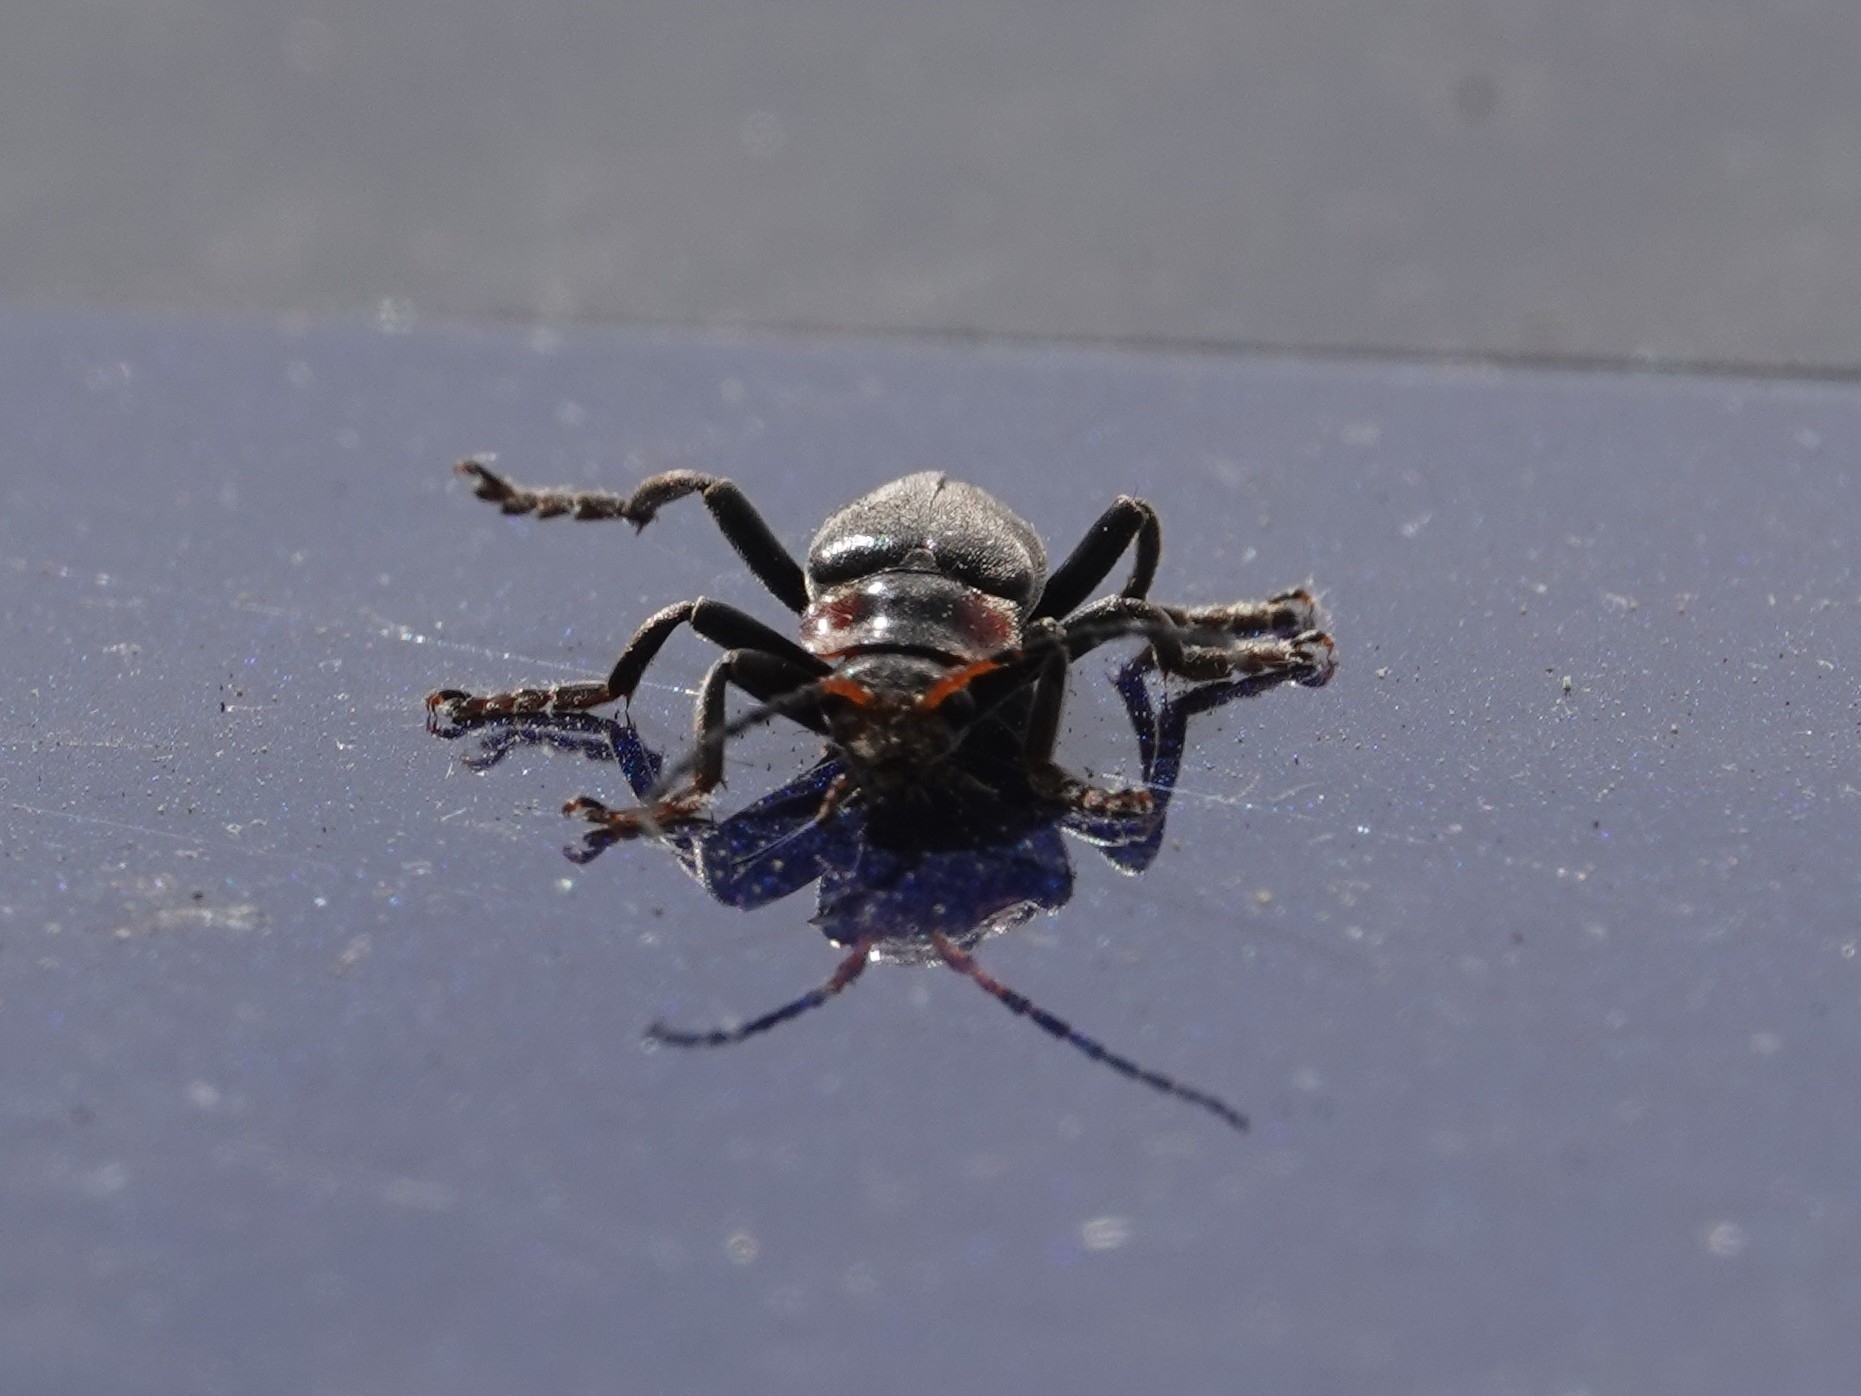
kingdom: Animalia
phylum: Arthropoda
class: Insecta
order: Coleoptera
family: Cantharidae
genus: Cantharis
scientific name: Cantharis fusca
